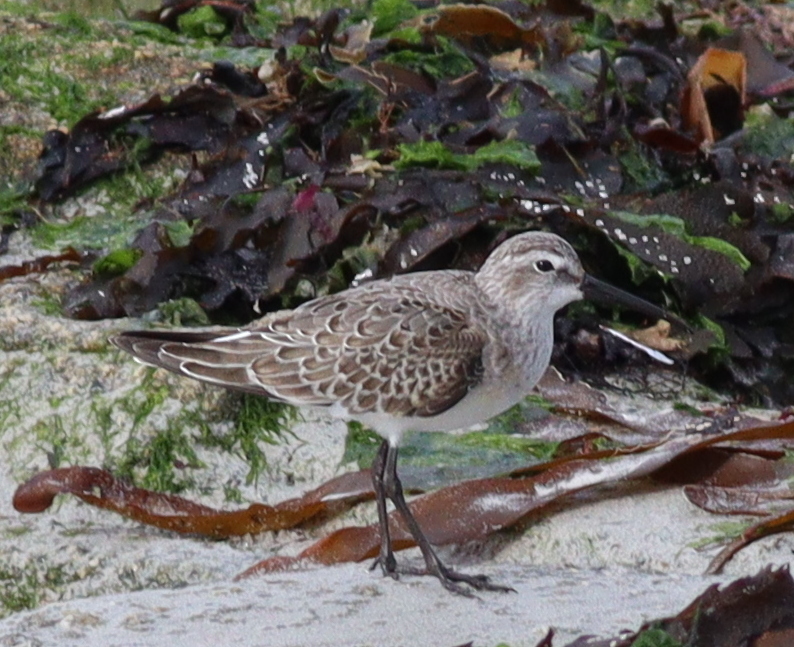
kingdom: Animalia
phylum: Chordata
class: Aves
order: Charadriiformes
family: Scolopacidae
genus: Calidris
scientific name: Calidris ferruginea
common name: Curlew sandpiper
